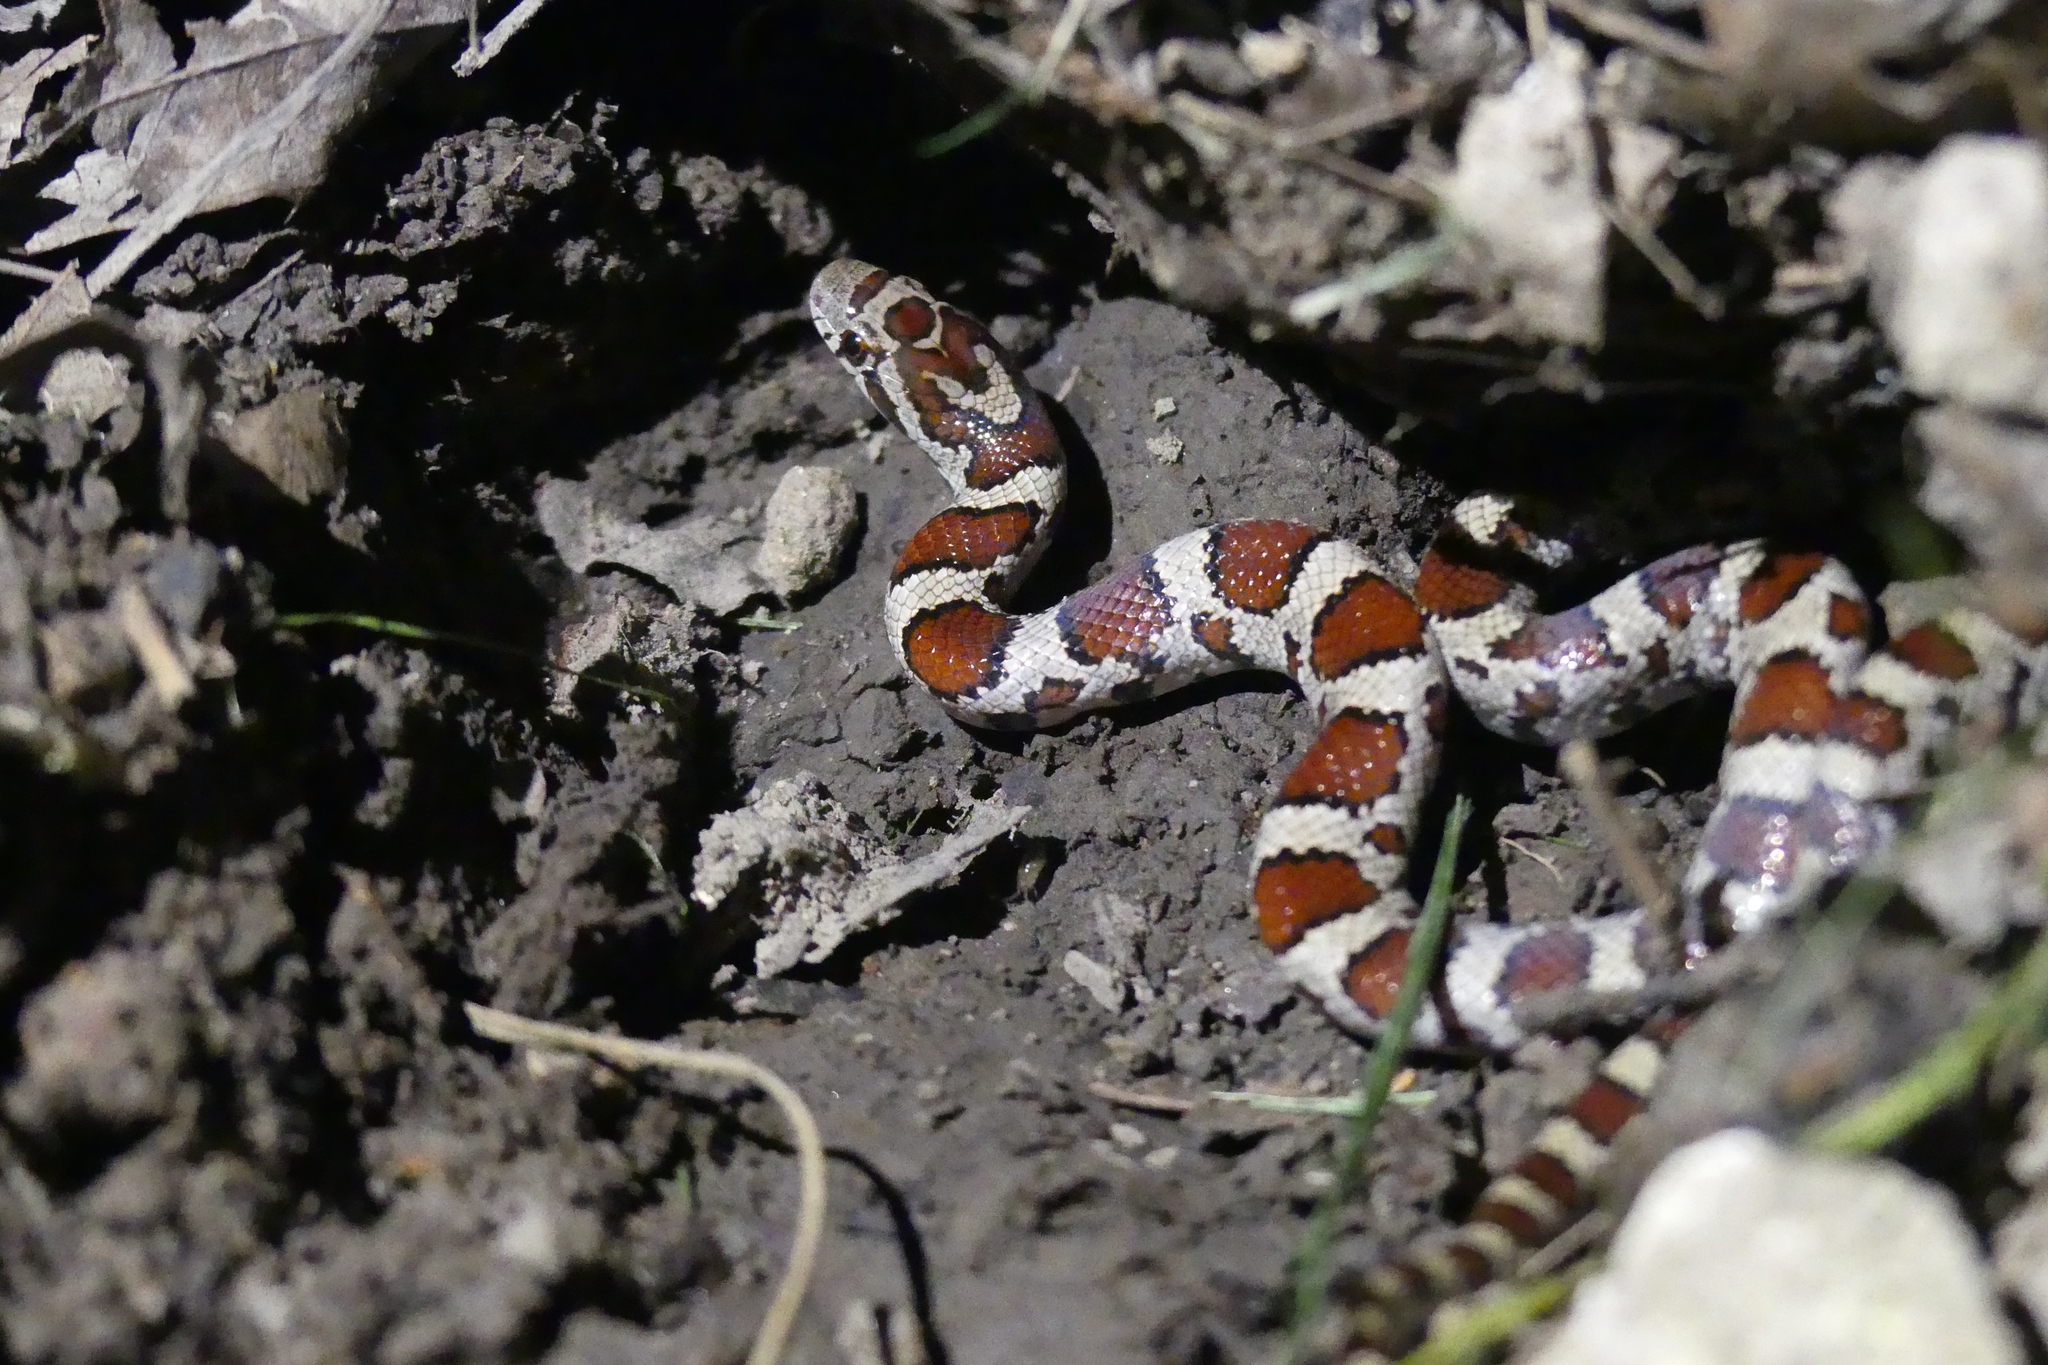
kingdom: Animalia
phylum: Chordata
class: Squamata
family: Colubridae
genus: Lampropeltis
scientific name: Lampropeltis triangulum
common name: Eastern milksnake
